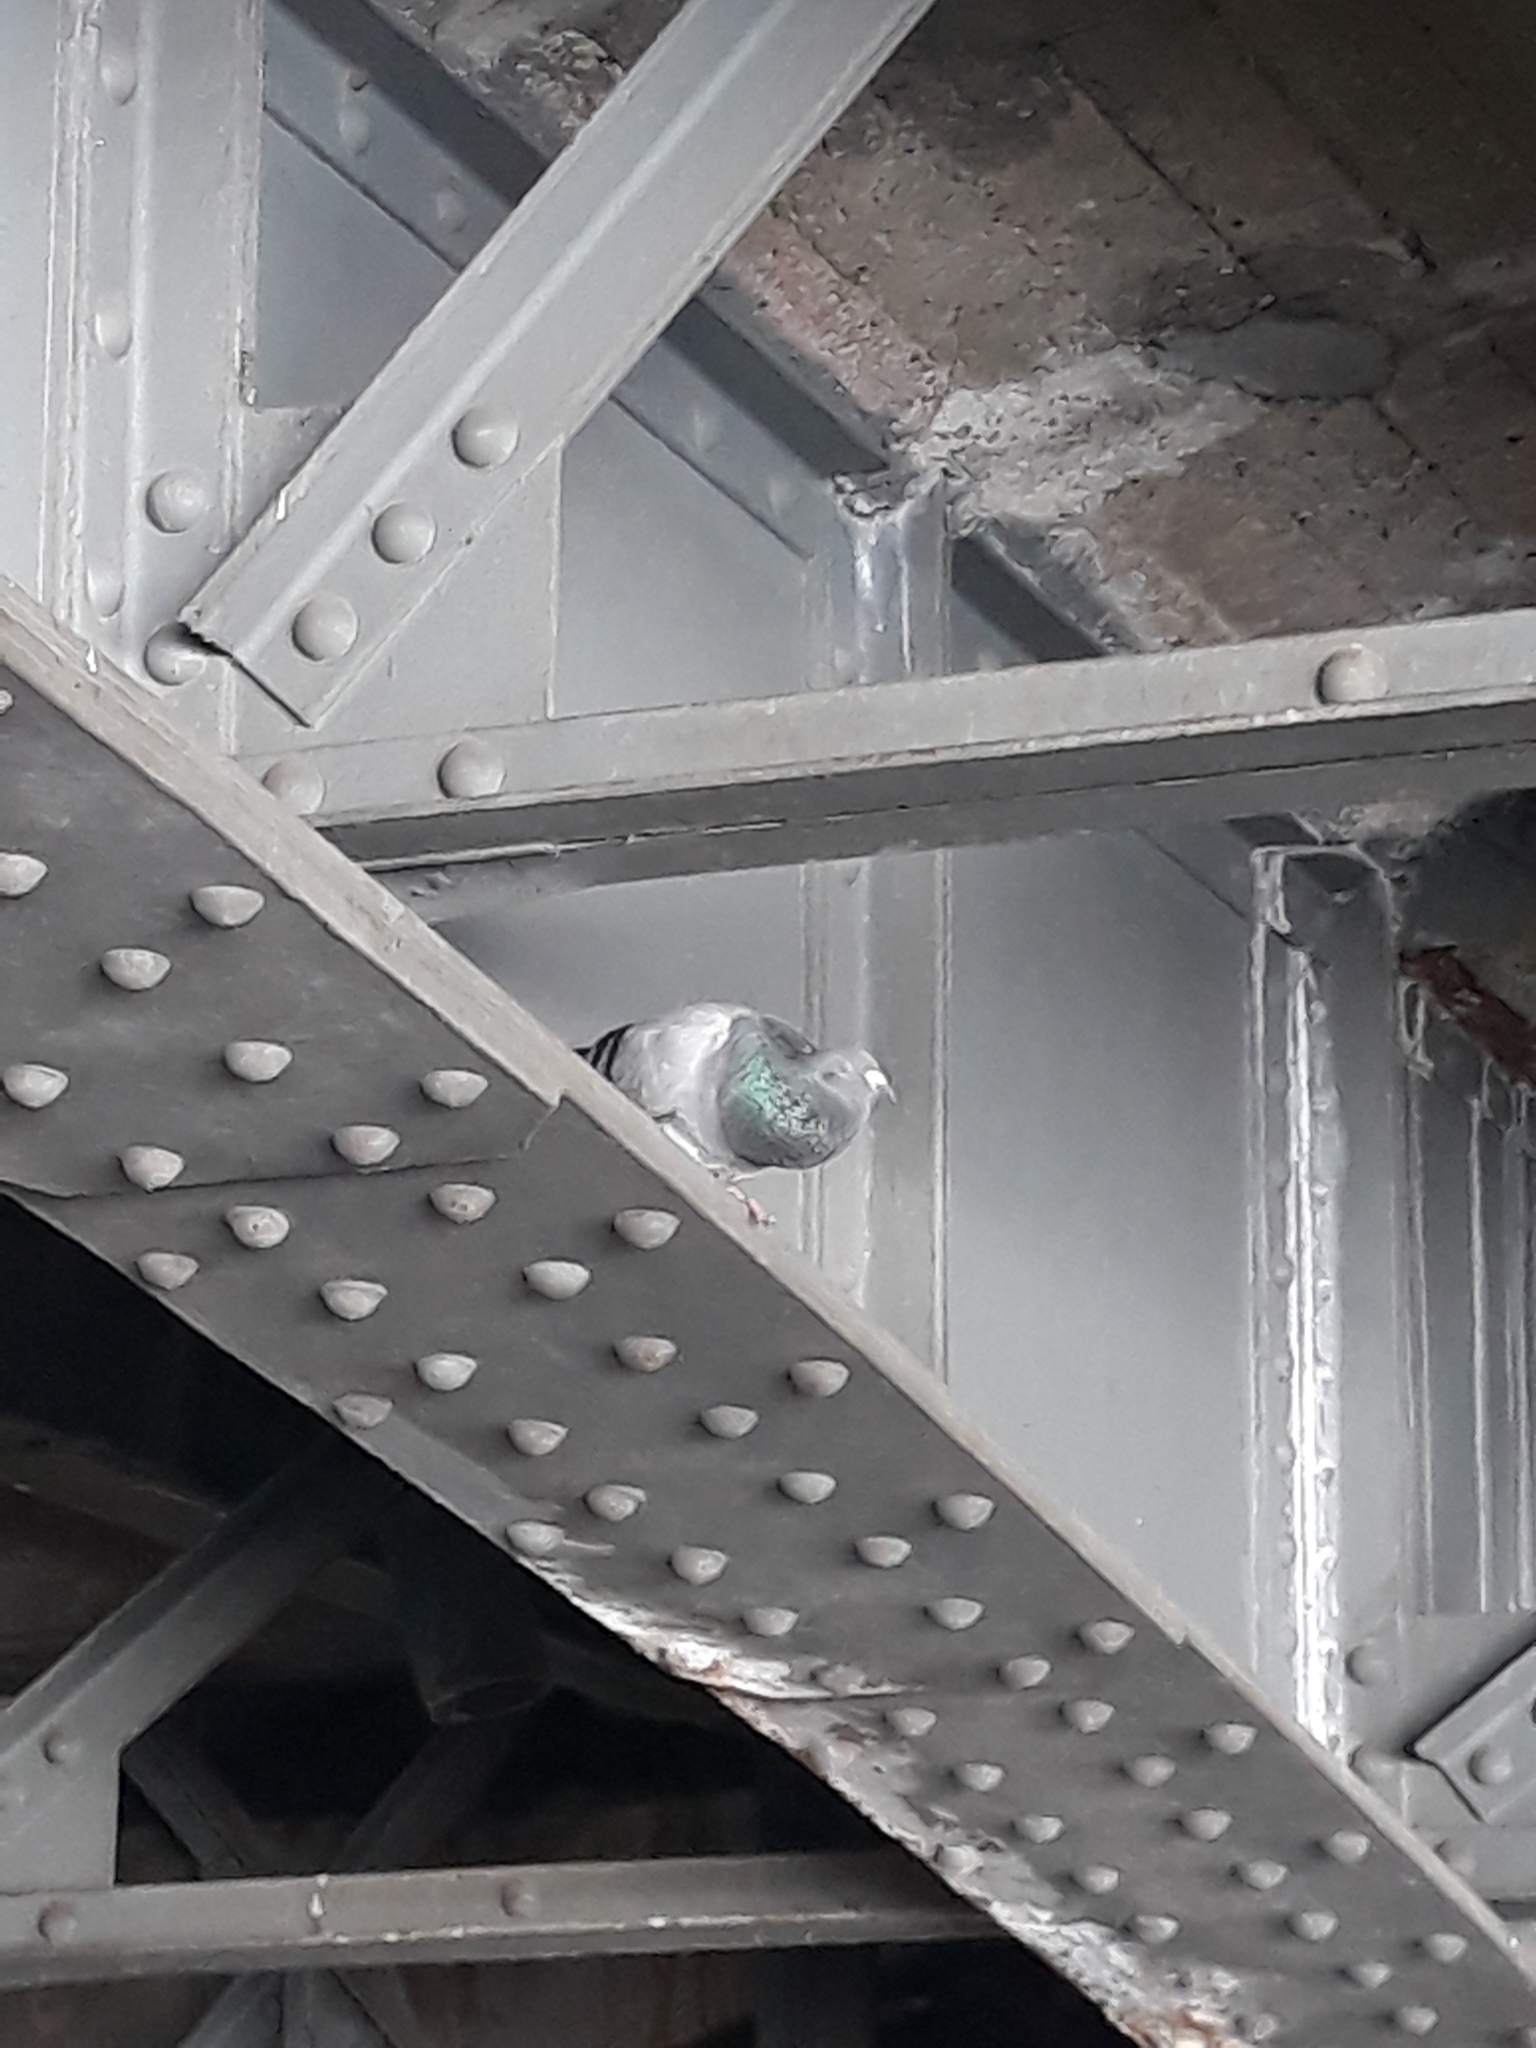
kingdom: Animalia
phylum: Chordata
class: Aves
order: Columbiformes
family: Columbidae
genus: Columba
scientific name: Columba livia
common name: Rock pigeon
